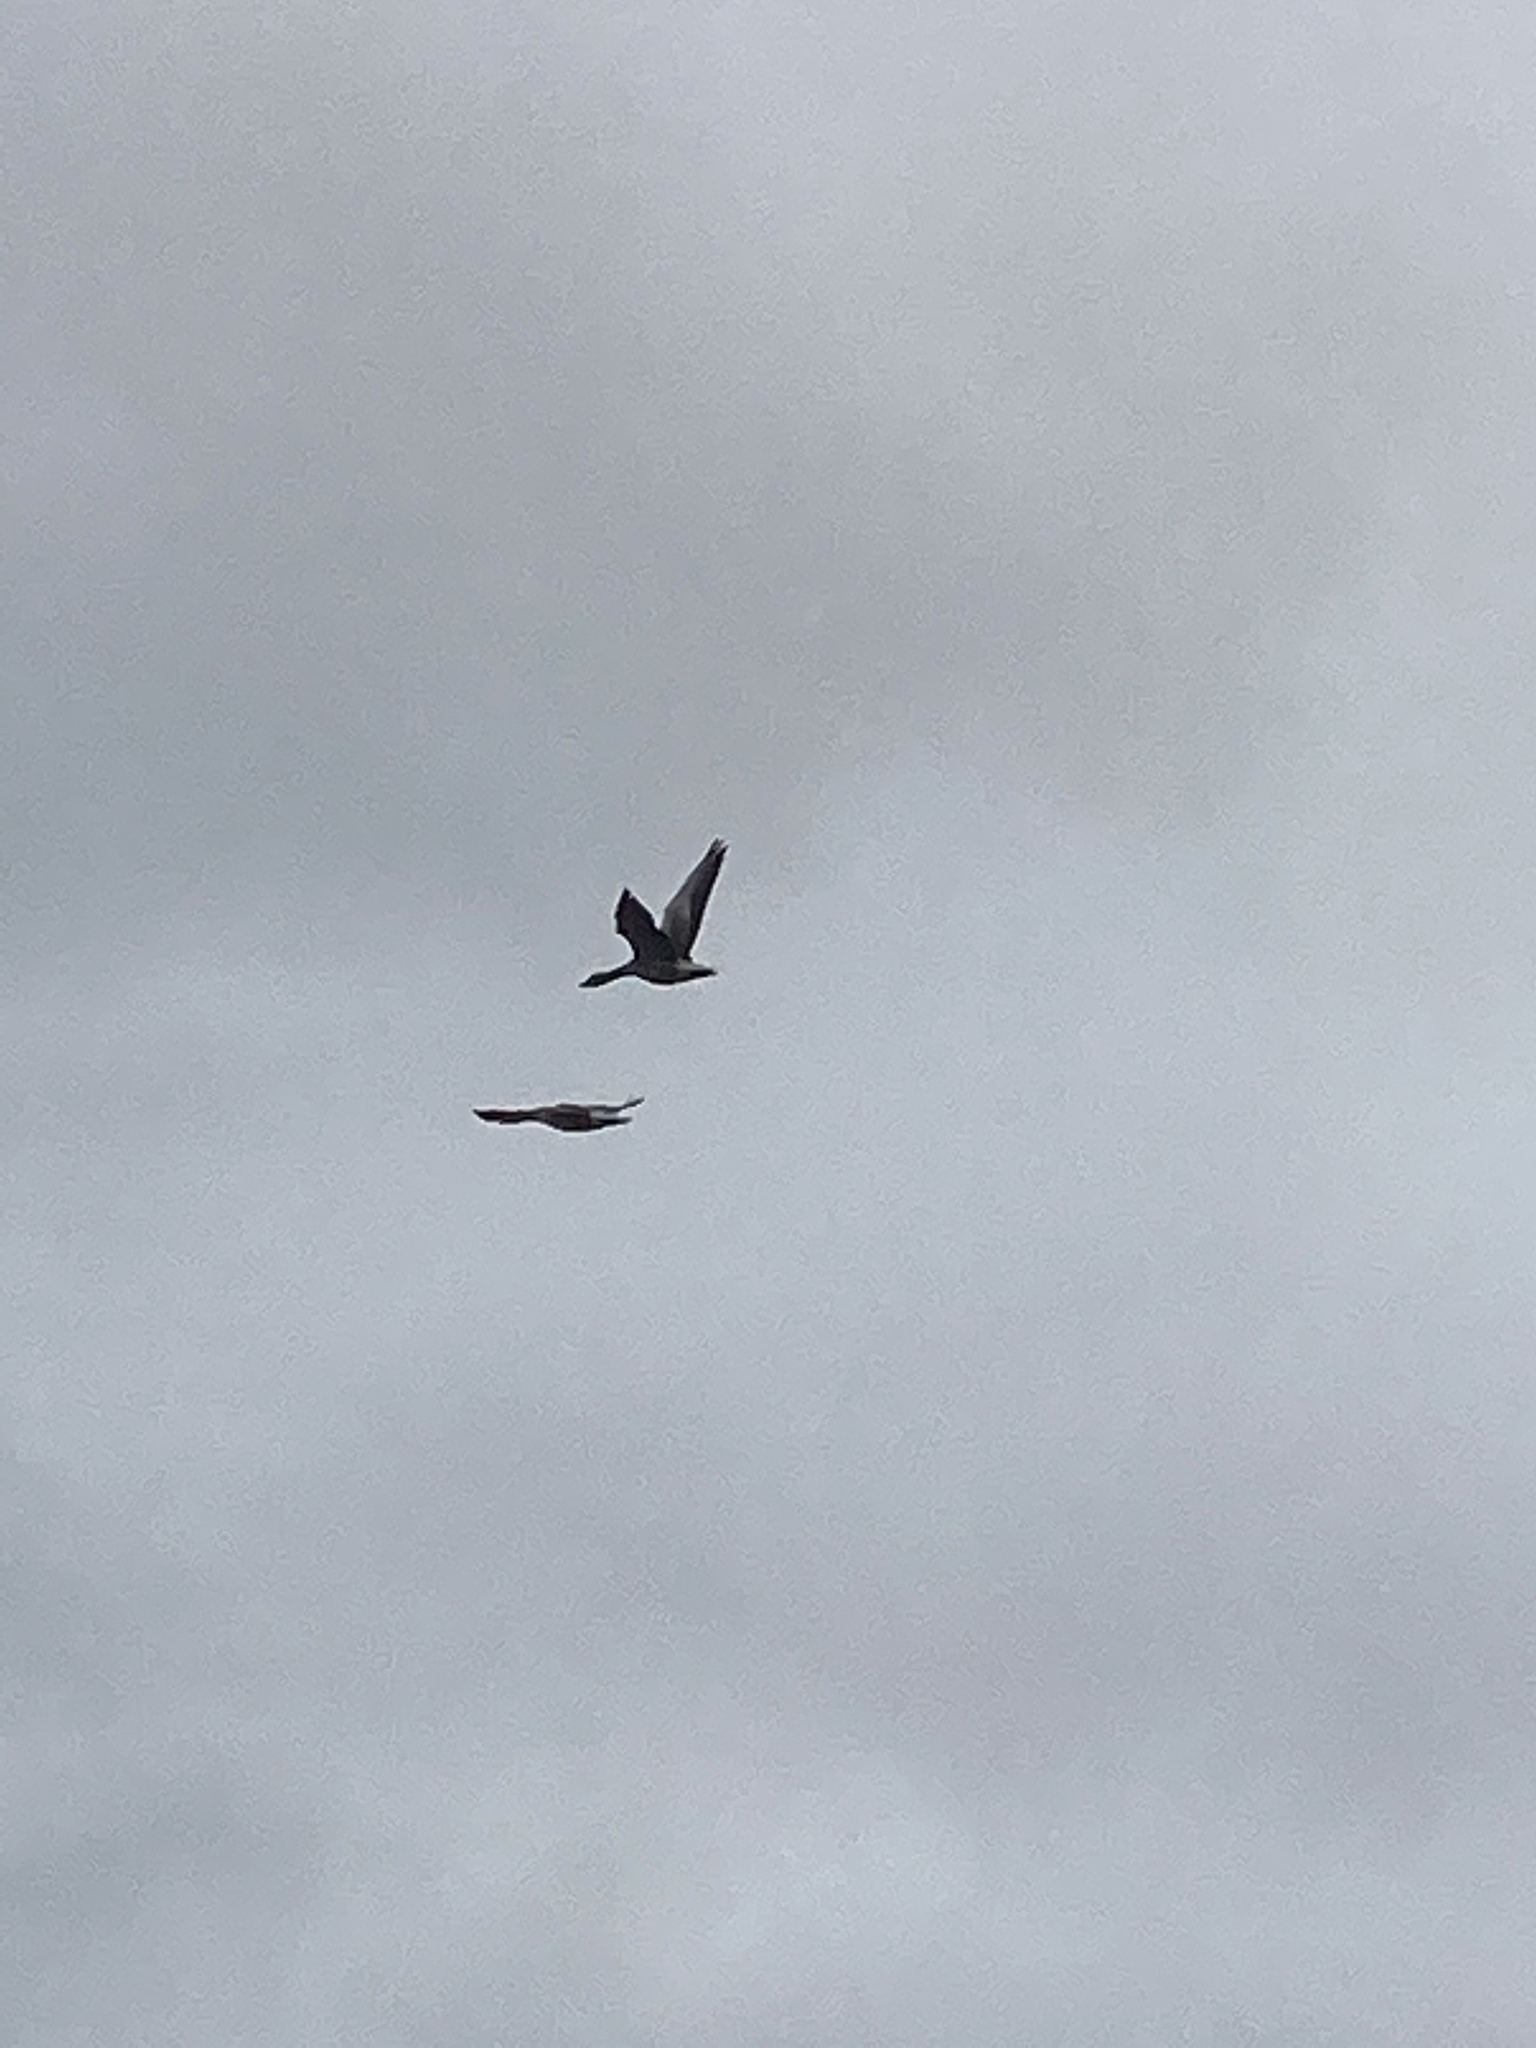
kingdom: Animalia
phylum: Chordata
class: Aves
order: Anseriformes
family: Anatidae
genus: Anser
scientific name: Anser anser
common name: Greylag goose
